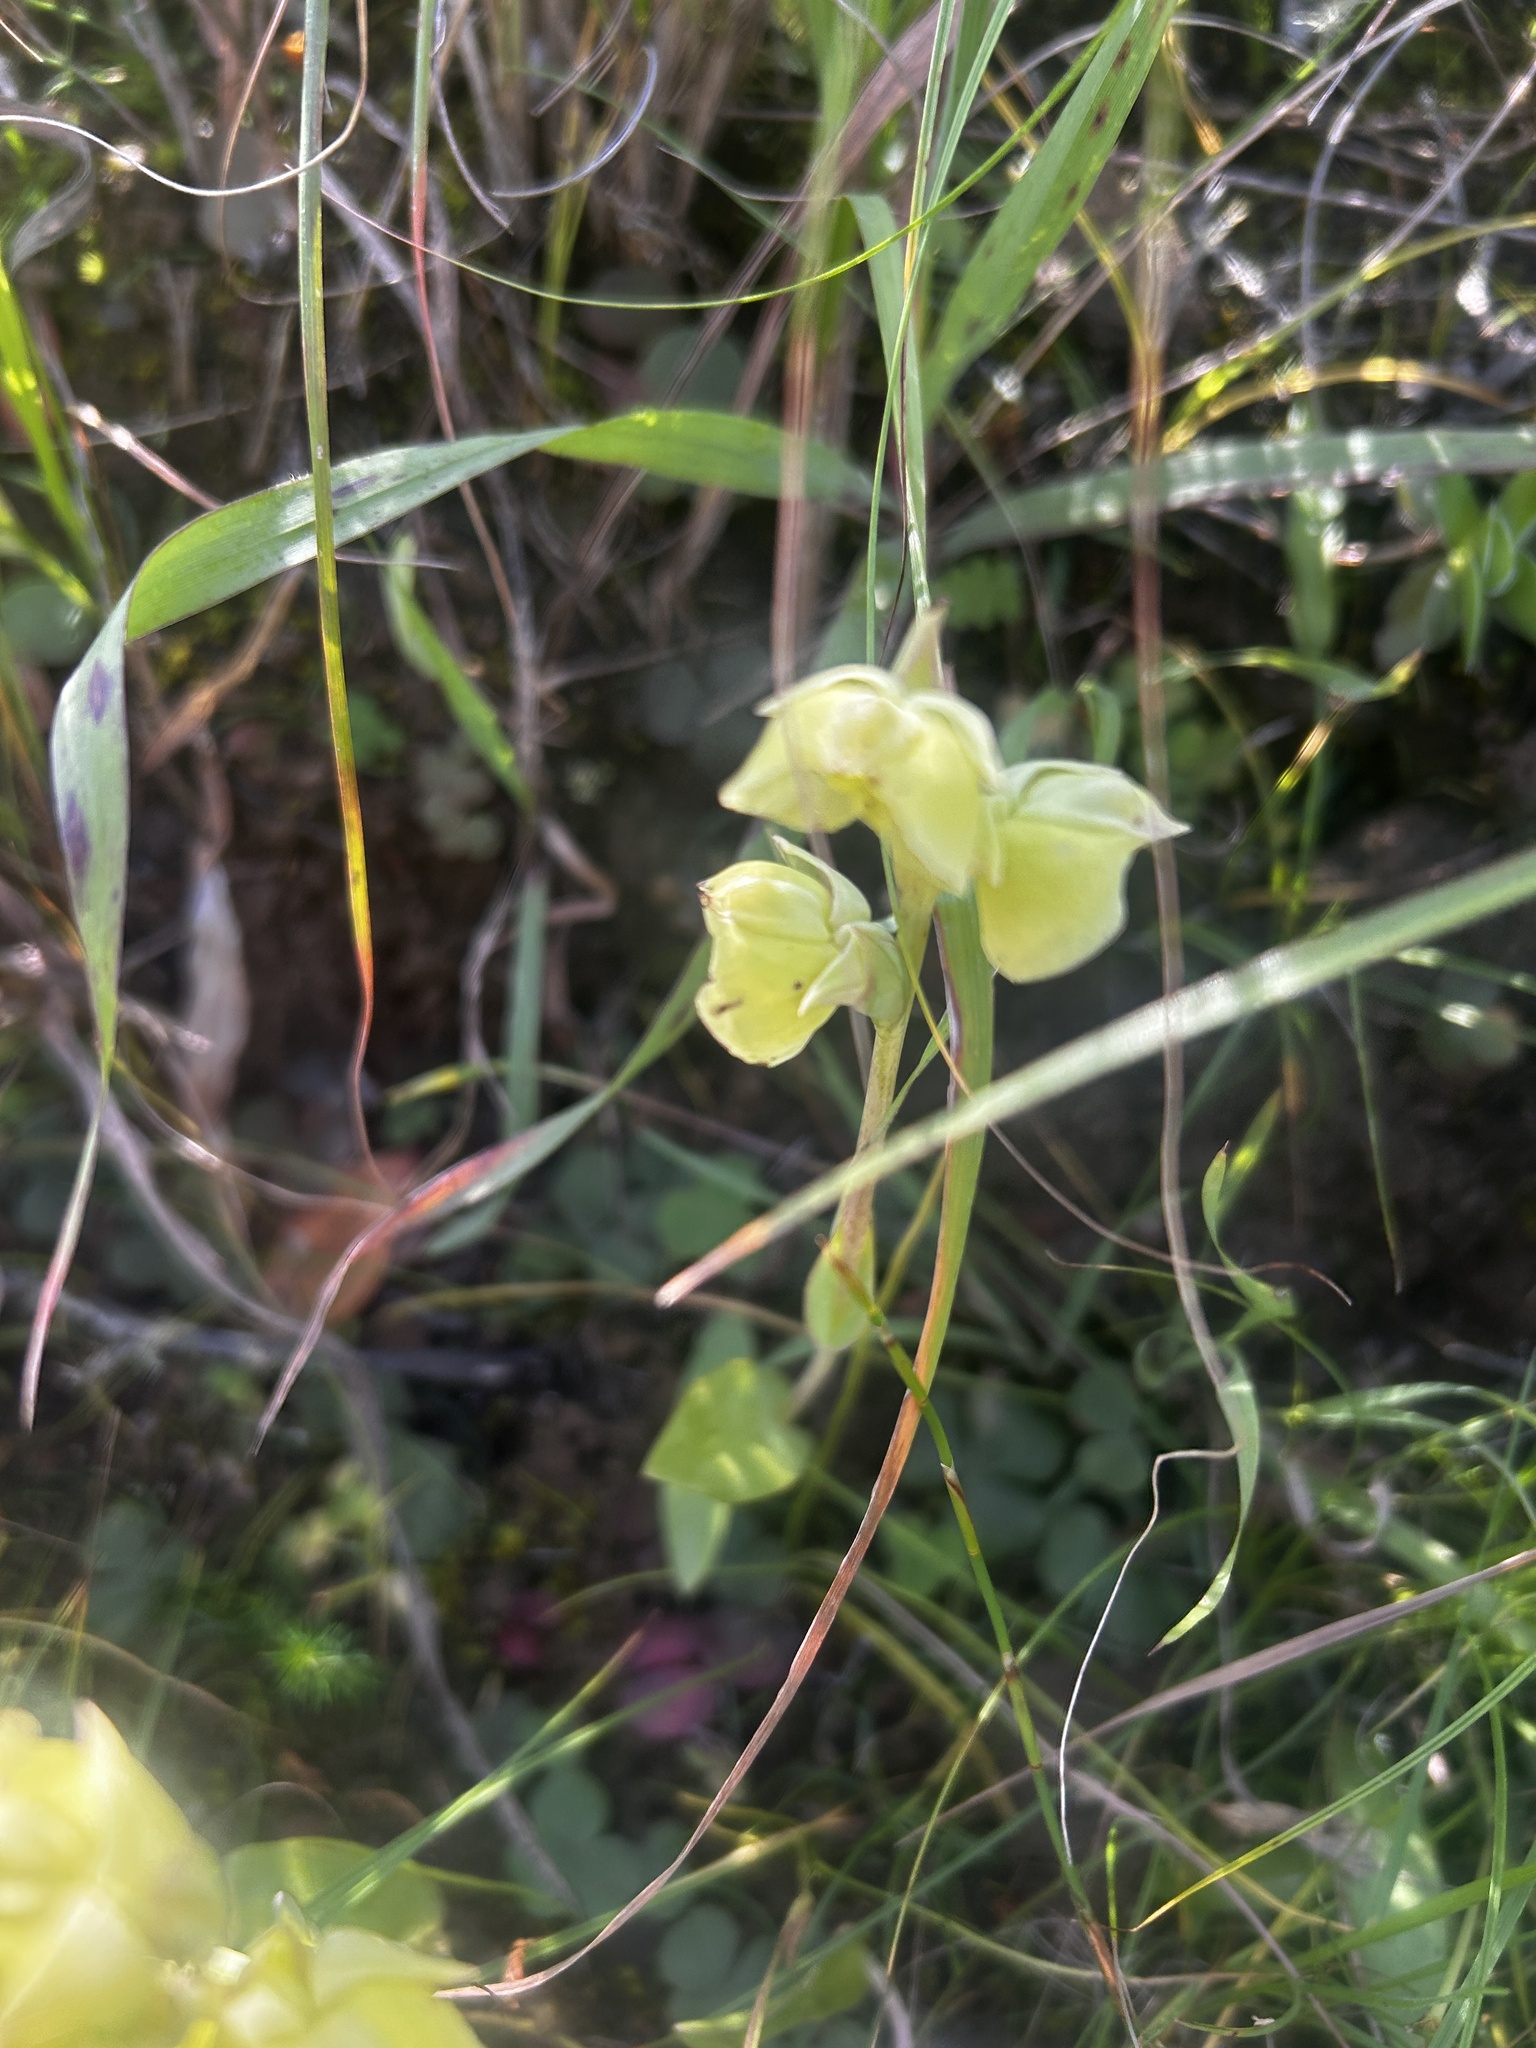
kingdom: Plantae
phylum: Tracheophyta
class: Liliopsida
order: Asparagales
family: Orchidaceae
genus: Pterygodium
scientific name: Pterygodium catholicum
